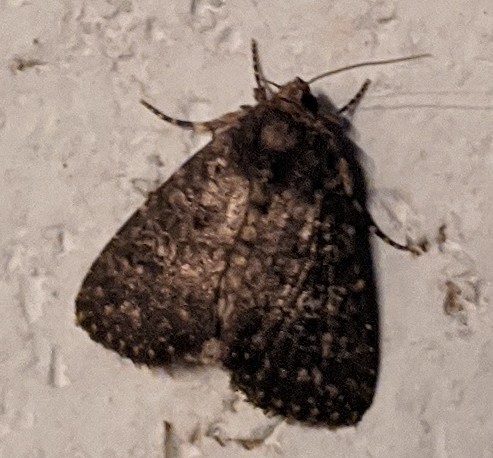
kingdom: Animalia
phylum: Arthropoda
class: Insecta
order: Lepidoptera
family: Noctuidae
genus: Condica
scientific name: Condica vecors
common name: Dusky groundling
